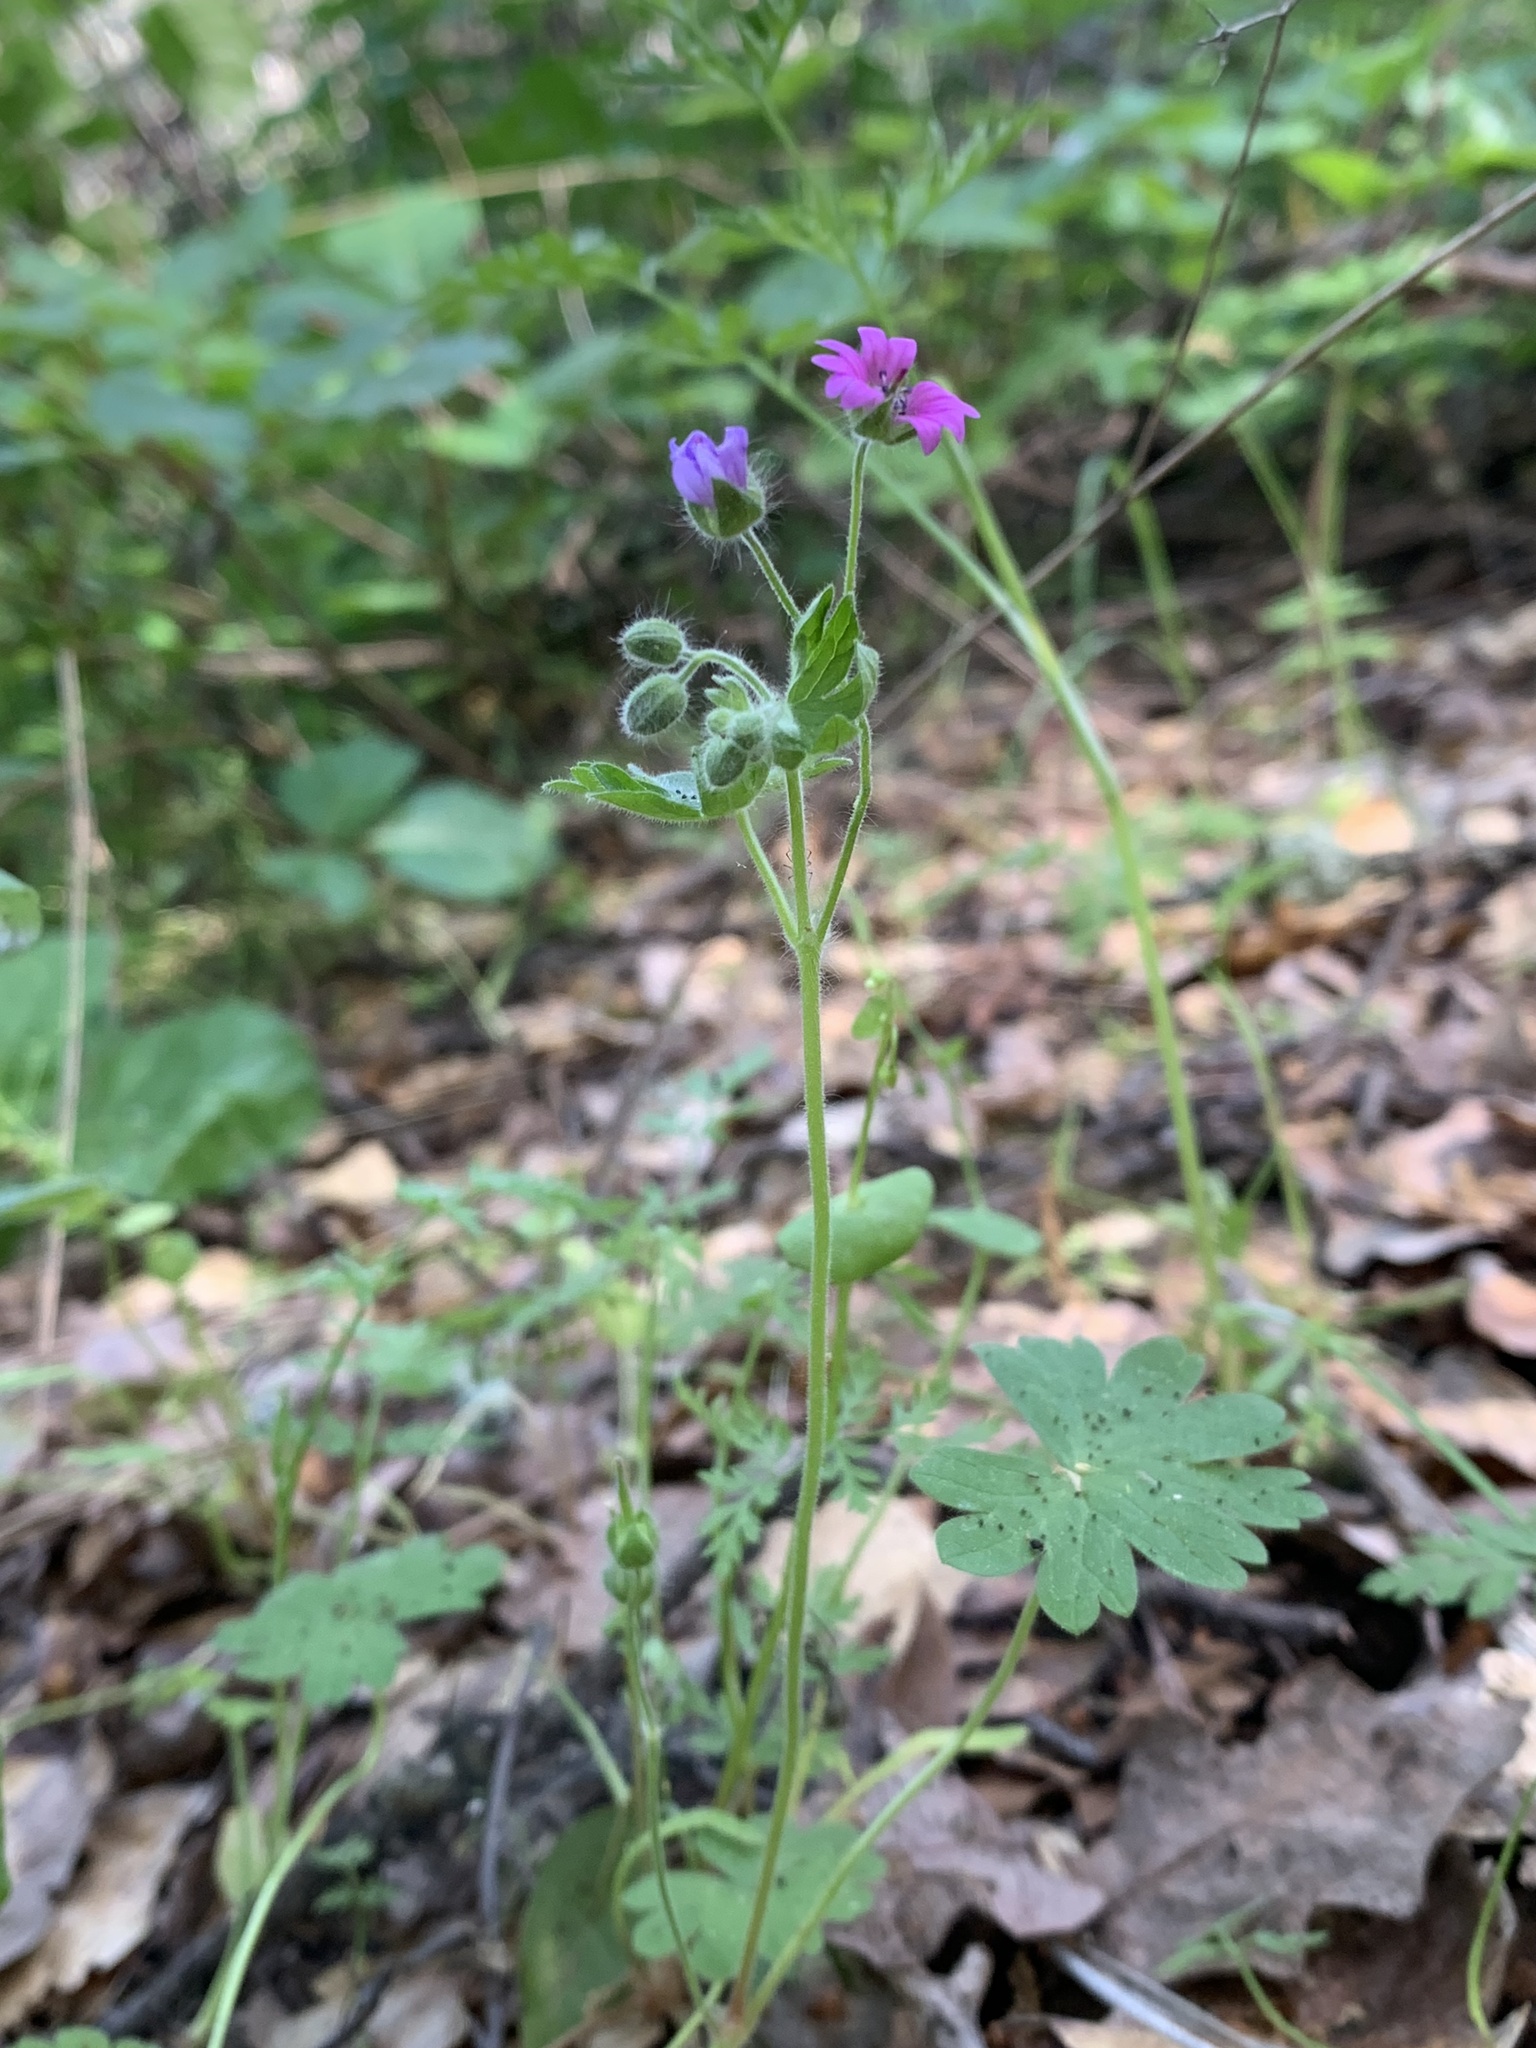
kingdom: Plantae
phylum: Tracheophyta
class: Magnoliopsida
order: Geraniales
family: Geraniaceae
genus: Geranium
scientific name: Geranium molle
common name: Dove's-foot crane's-bill
